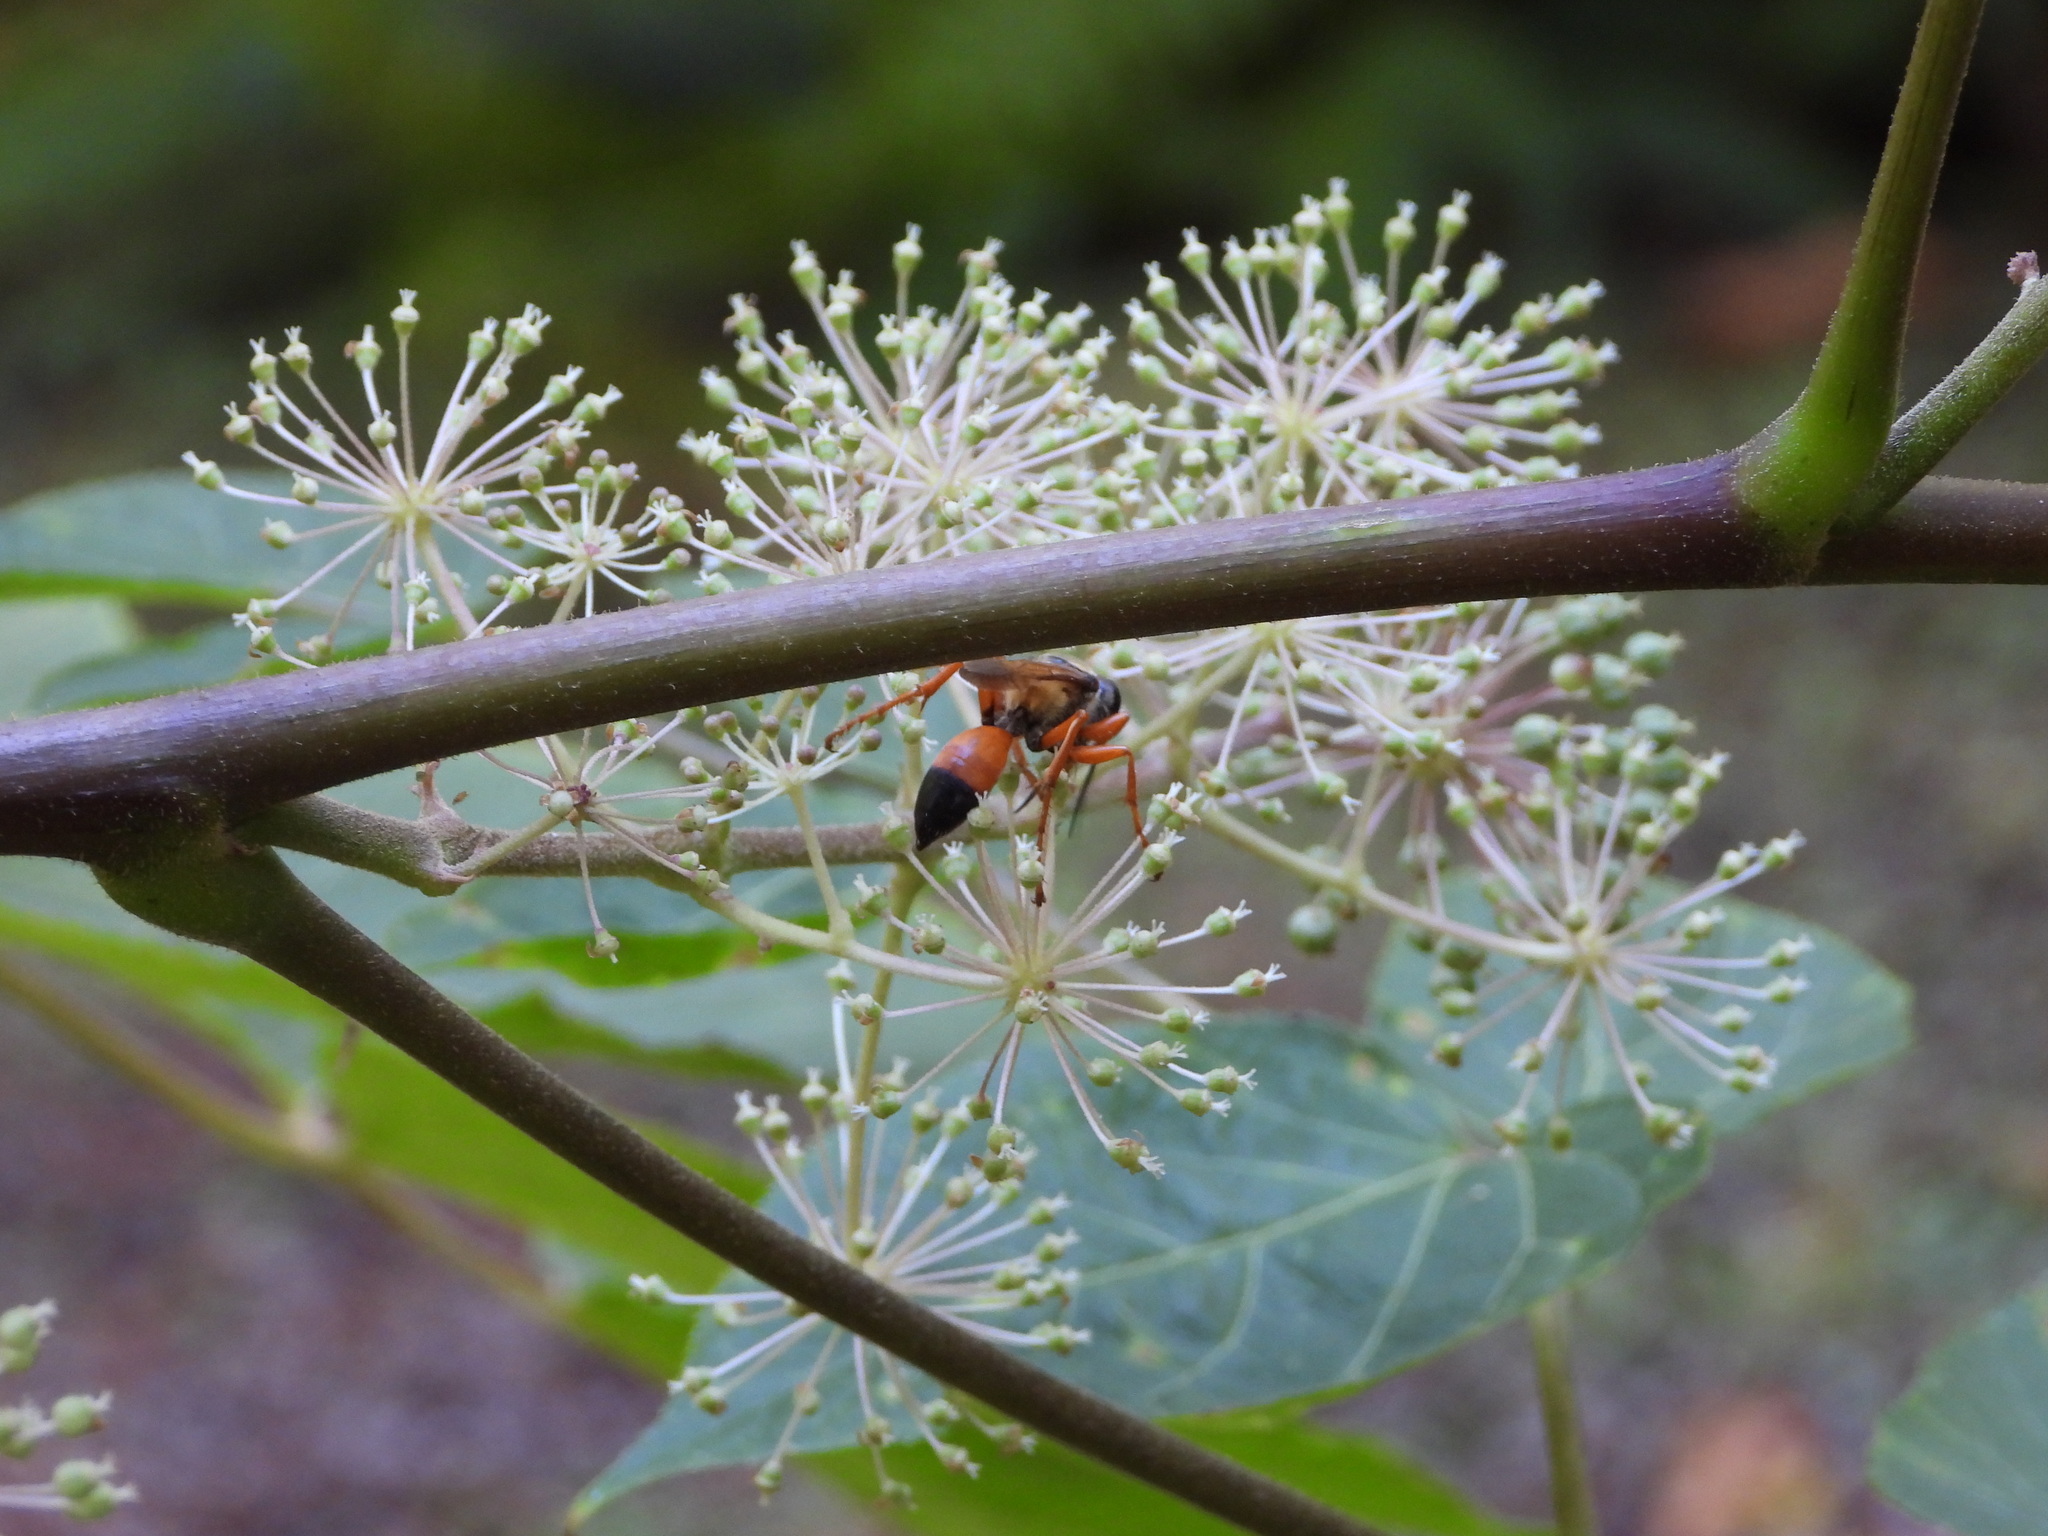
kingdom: Animalia
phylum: Arthropoda
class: Insecta
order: Hymenoptera
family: Sphecidae
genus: Sphex
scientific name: Sphex ichneumoneus
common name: Great golden digger wasp
